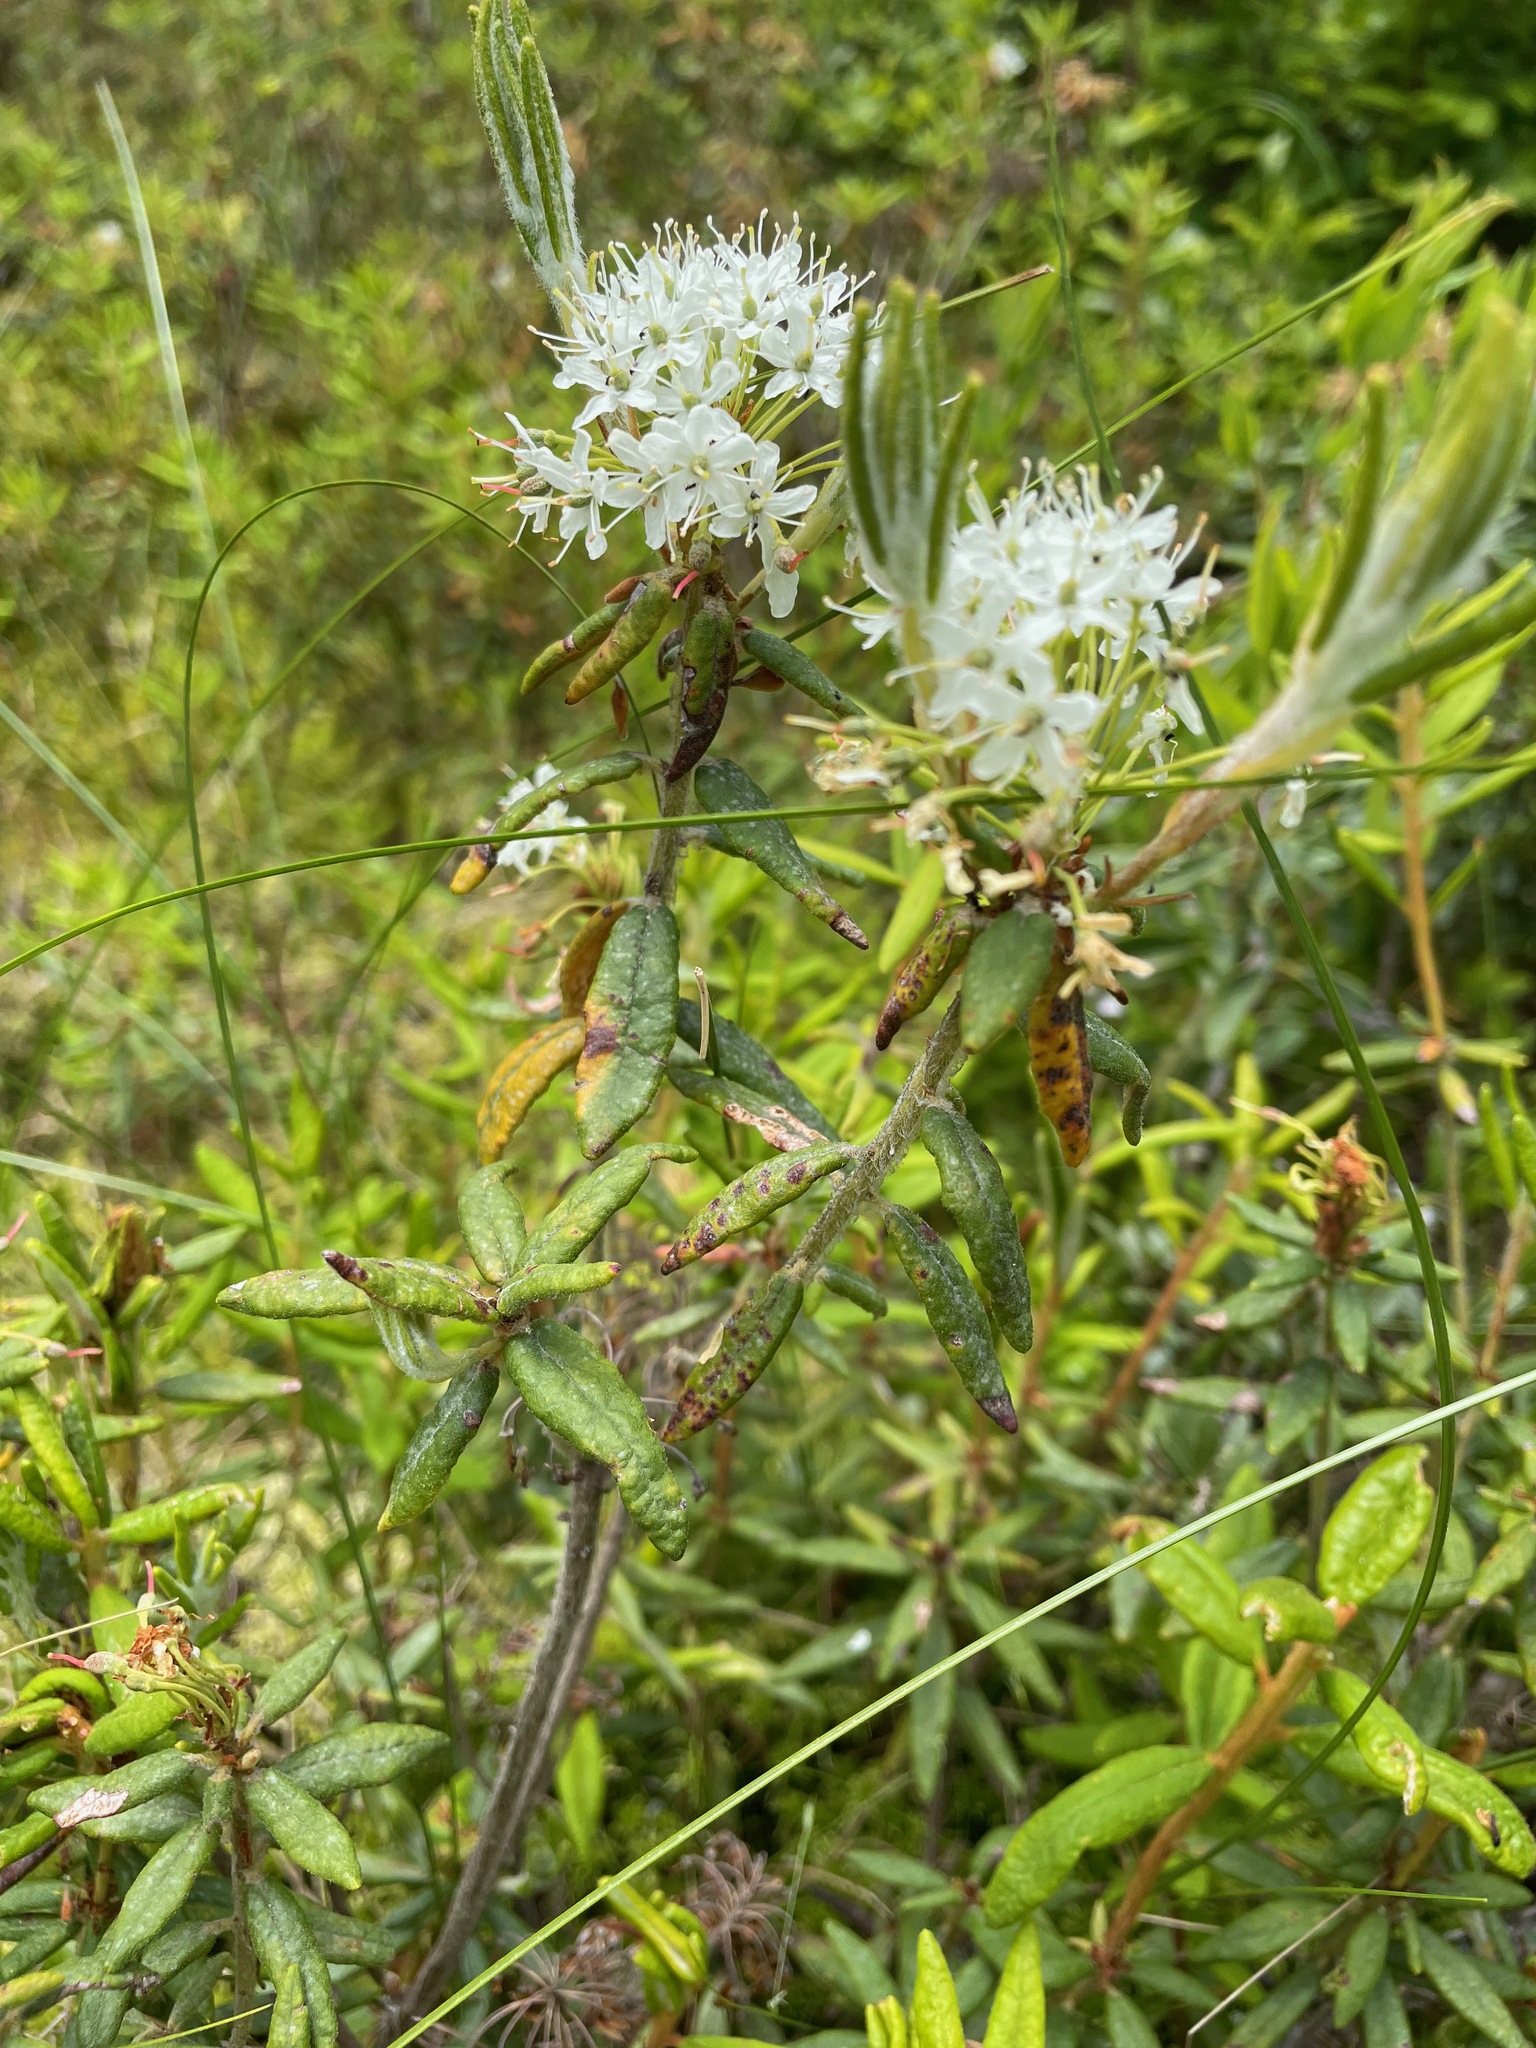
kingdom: Plantae
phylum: Tracheophyta
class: Magnoliopsida
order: Ericales
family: Ericaceae
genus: Rhododendron
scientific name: Rhododendron groenlandicum
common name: Bog labrador tea
